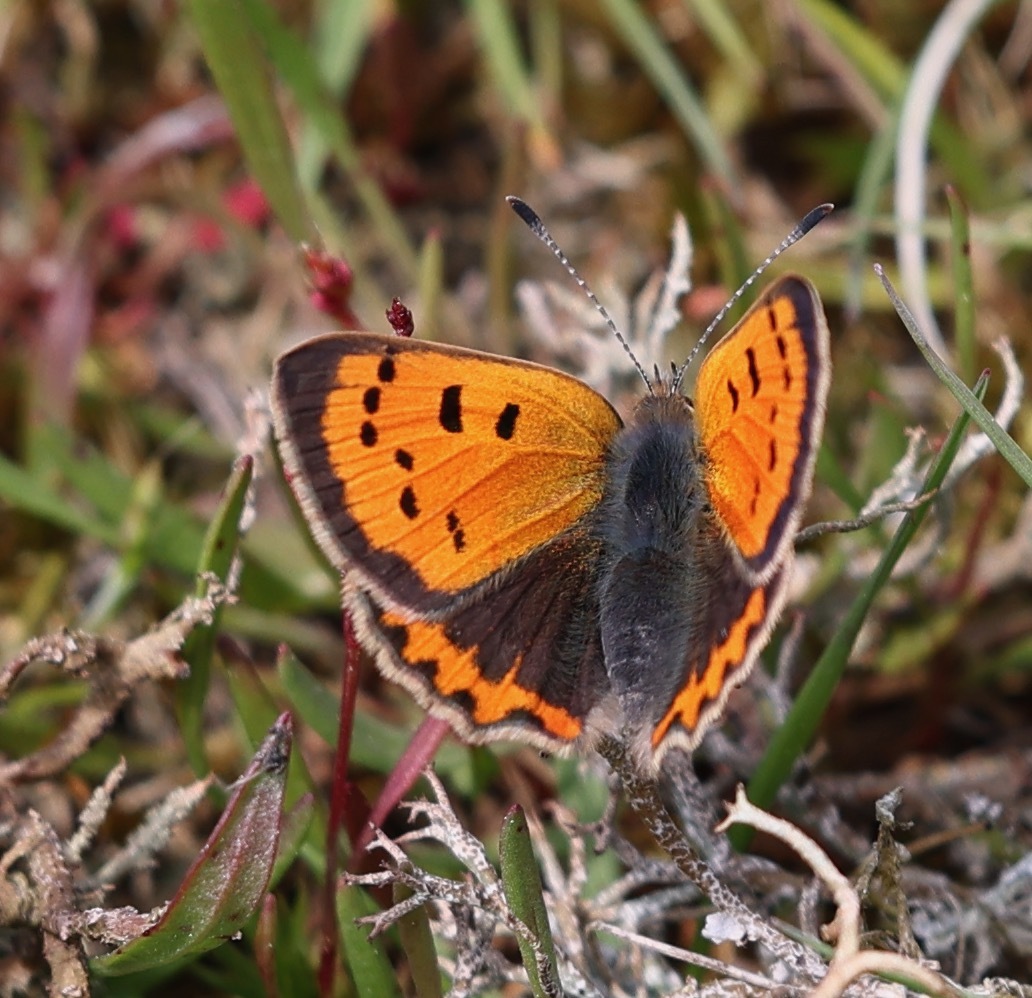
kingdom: Animalia
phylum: Arthropoda
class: Insecta
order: Lepidoptera
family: Lycaenidae
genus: Lycaena
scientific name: Lycaena phlaeas
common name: Small copper
